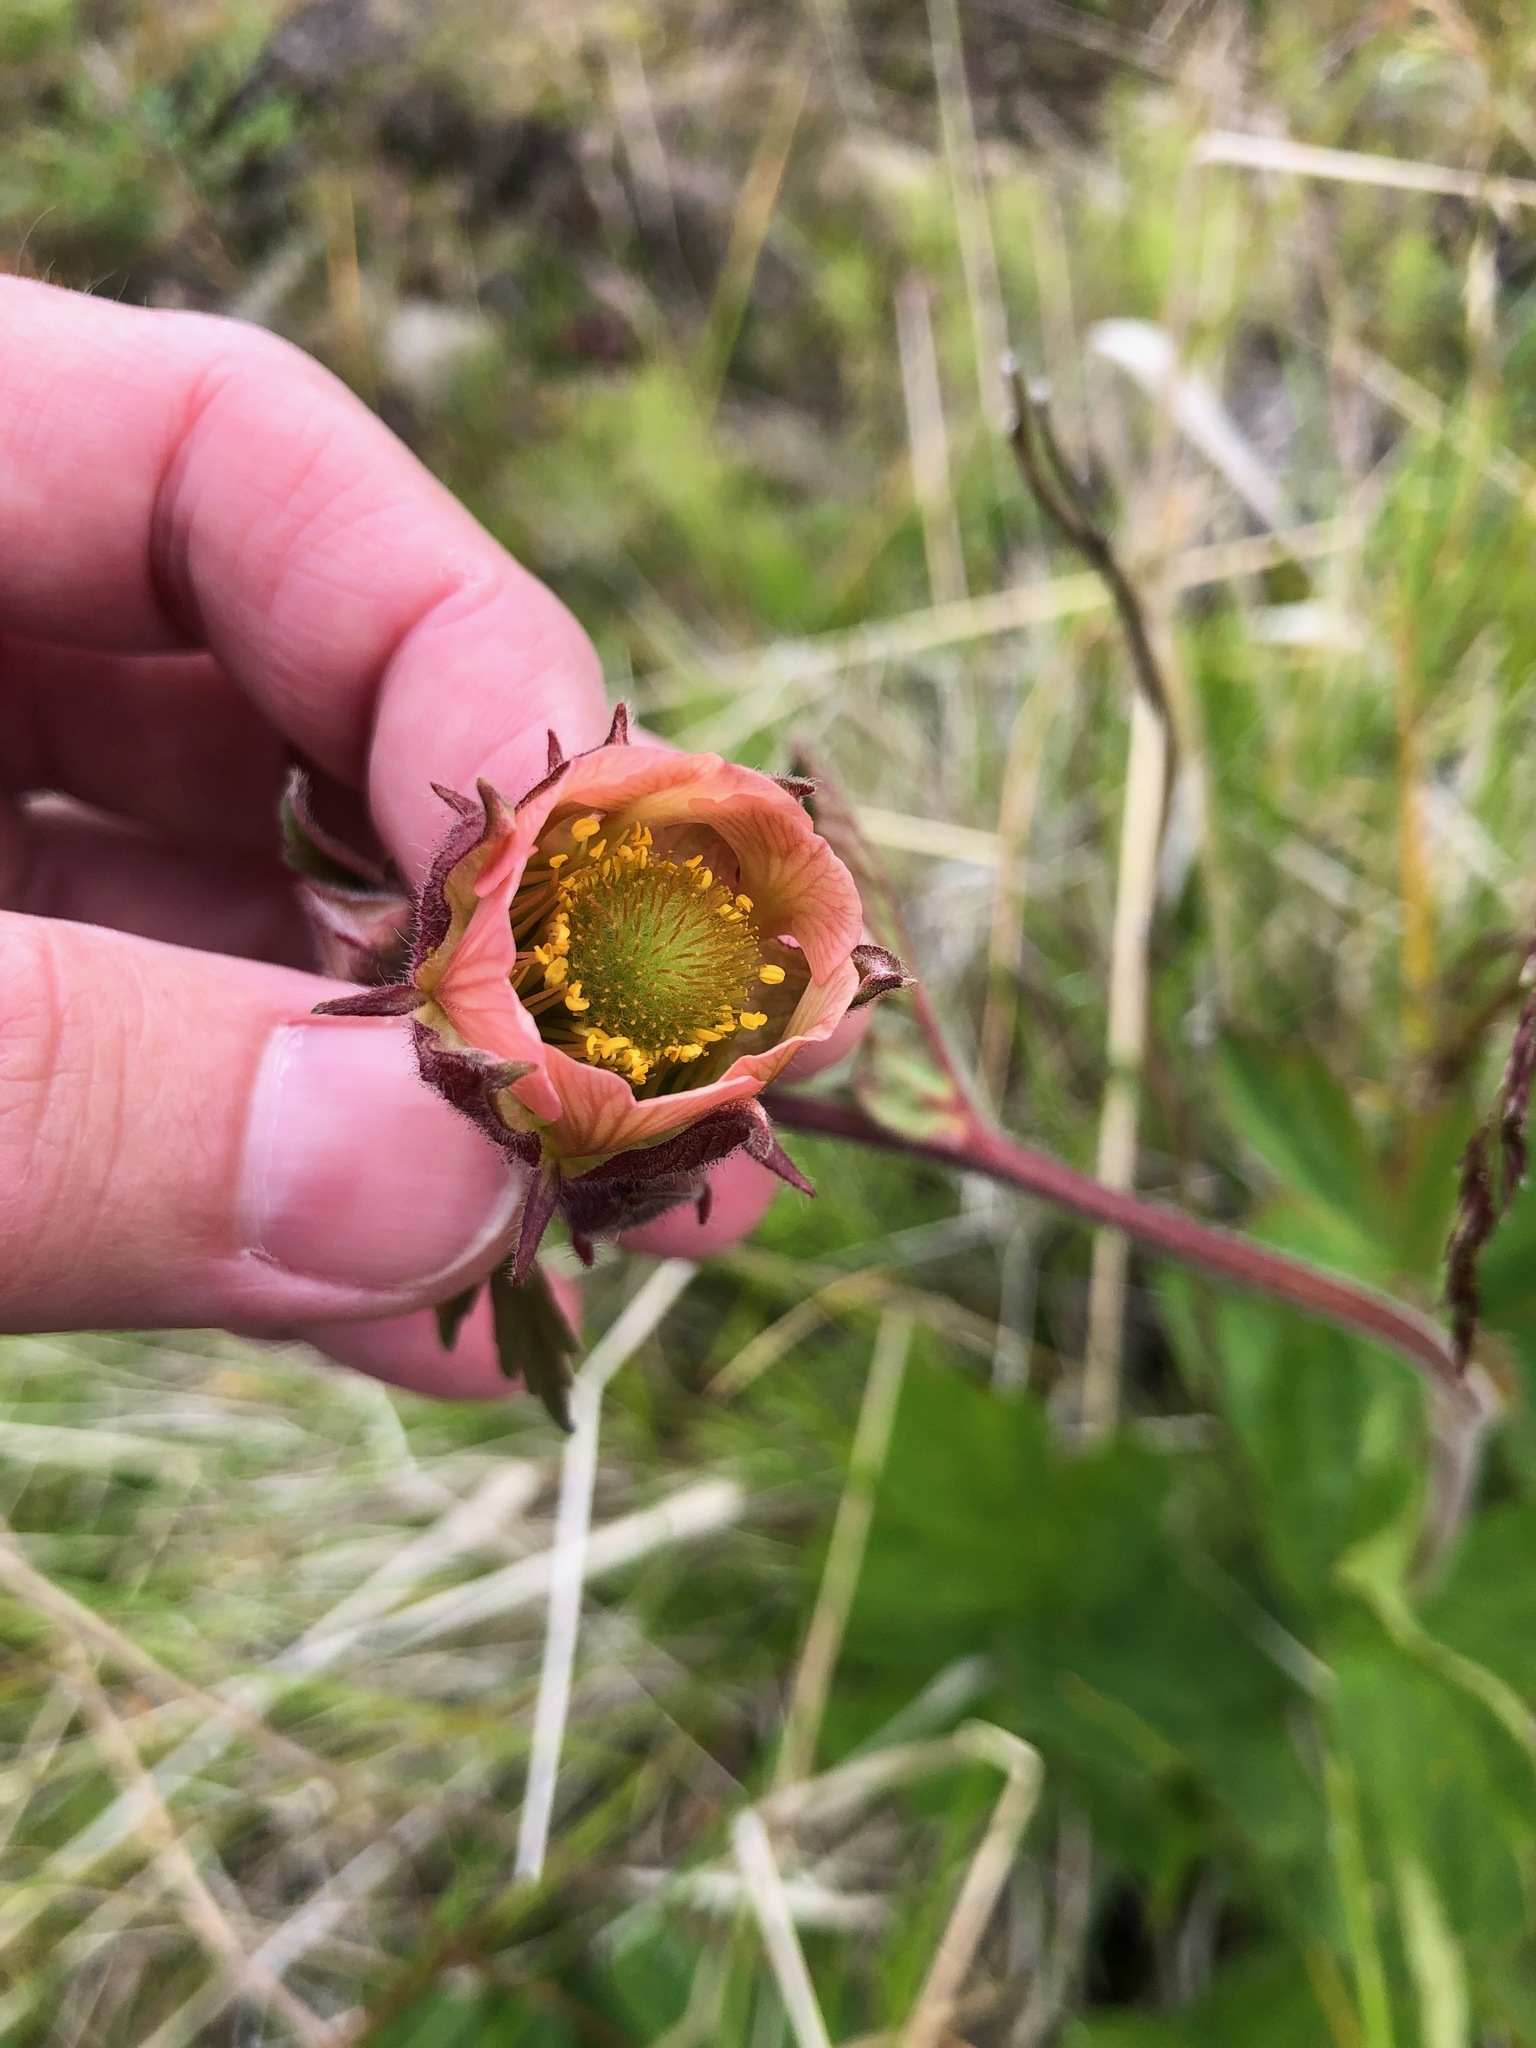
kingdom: Plantae
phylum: Tracheophyta
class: Magnoliopsida
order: Rosales
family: Rosaceae
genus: Geum
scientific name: Geum rivale
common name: Water avens
